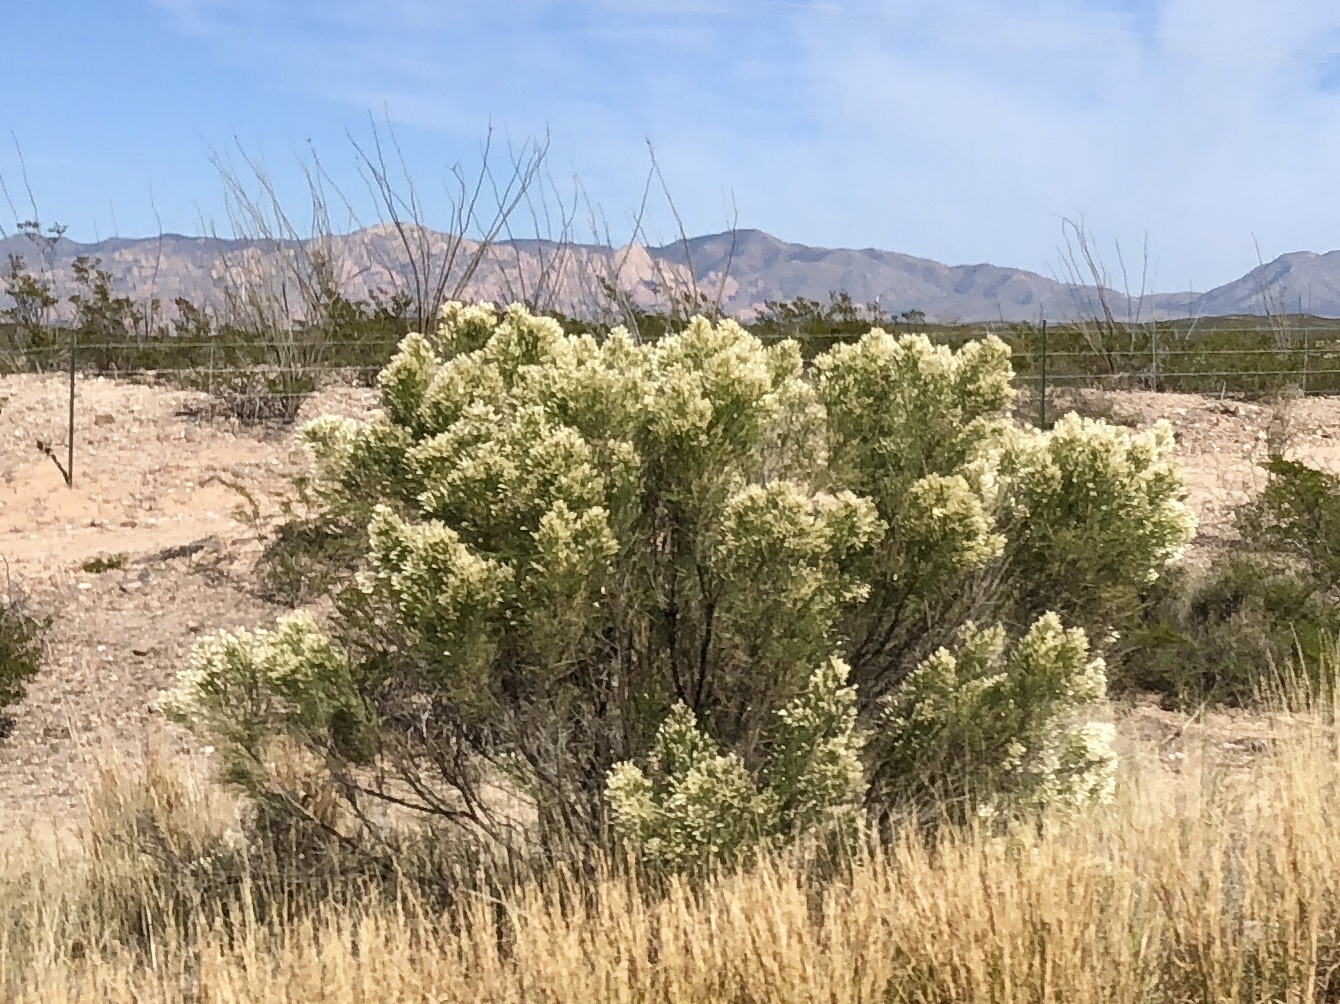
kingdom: Plantae
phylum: Tracheophyta
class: Magnoliopsida
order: Asterales
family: Asteraceae
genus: Baccharis
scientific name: Baccharis sarothroides
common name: Desert-broom
